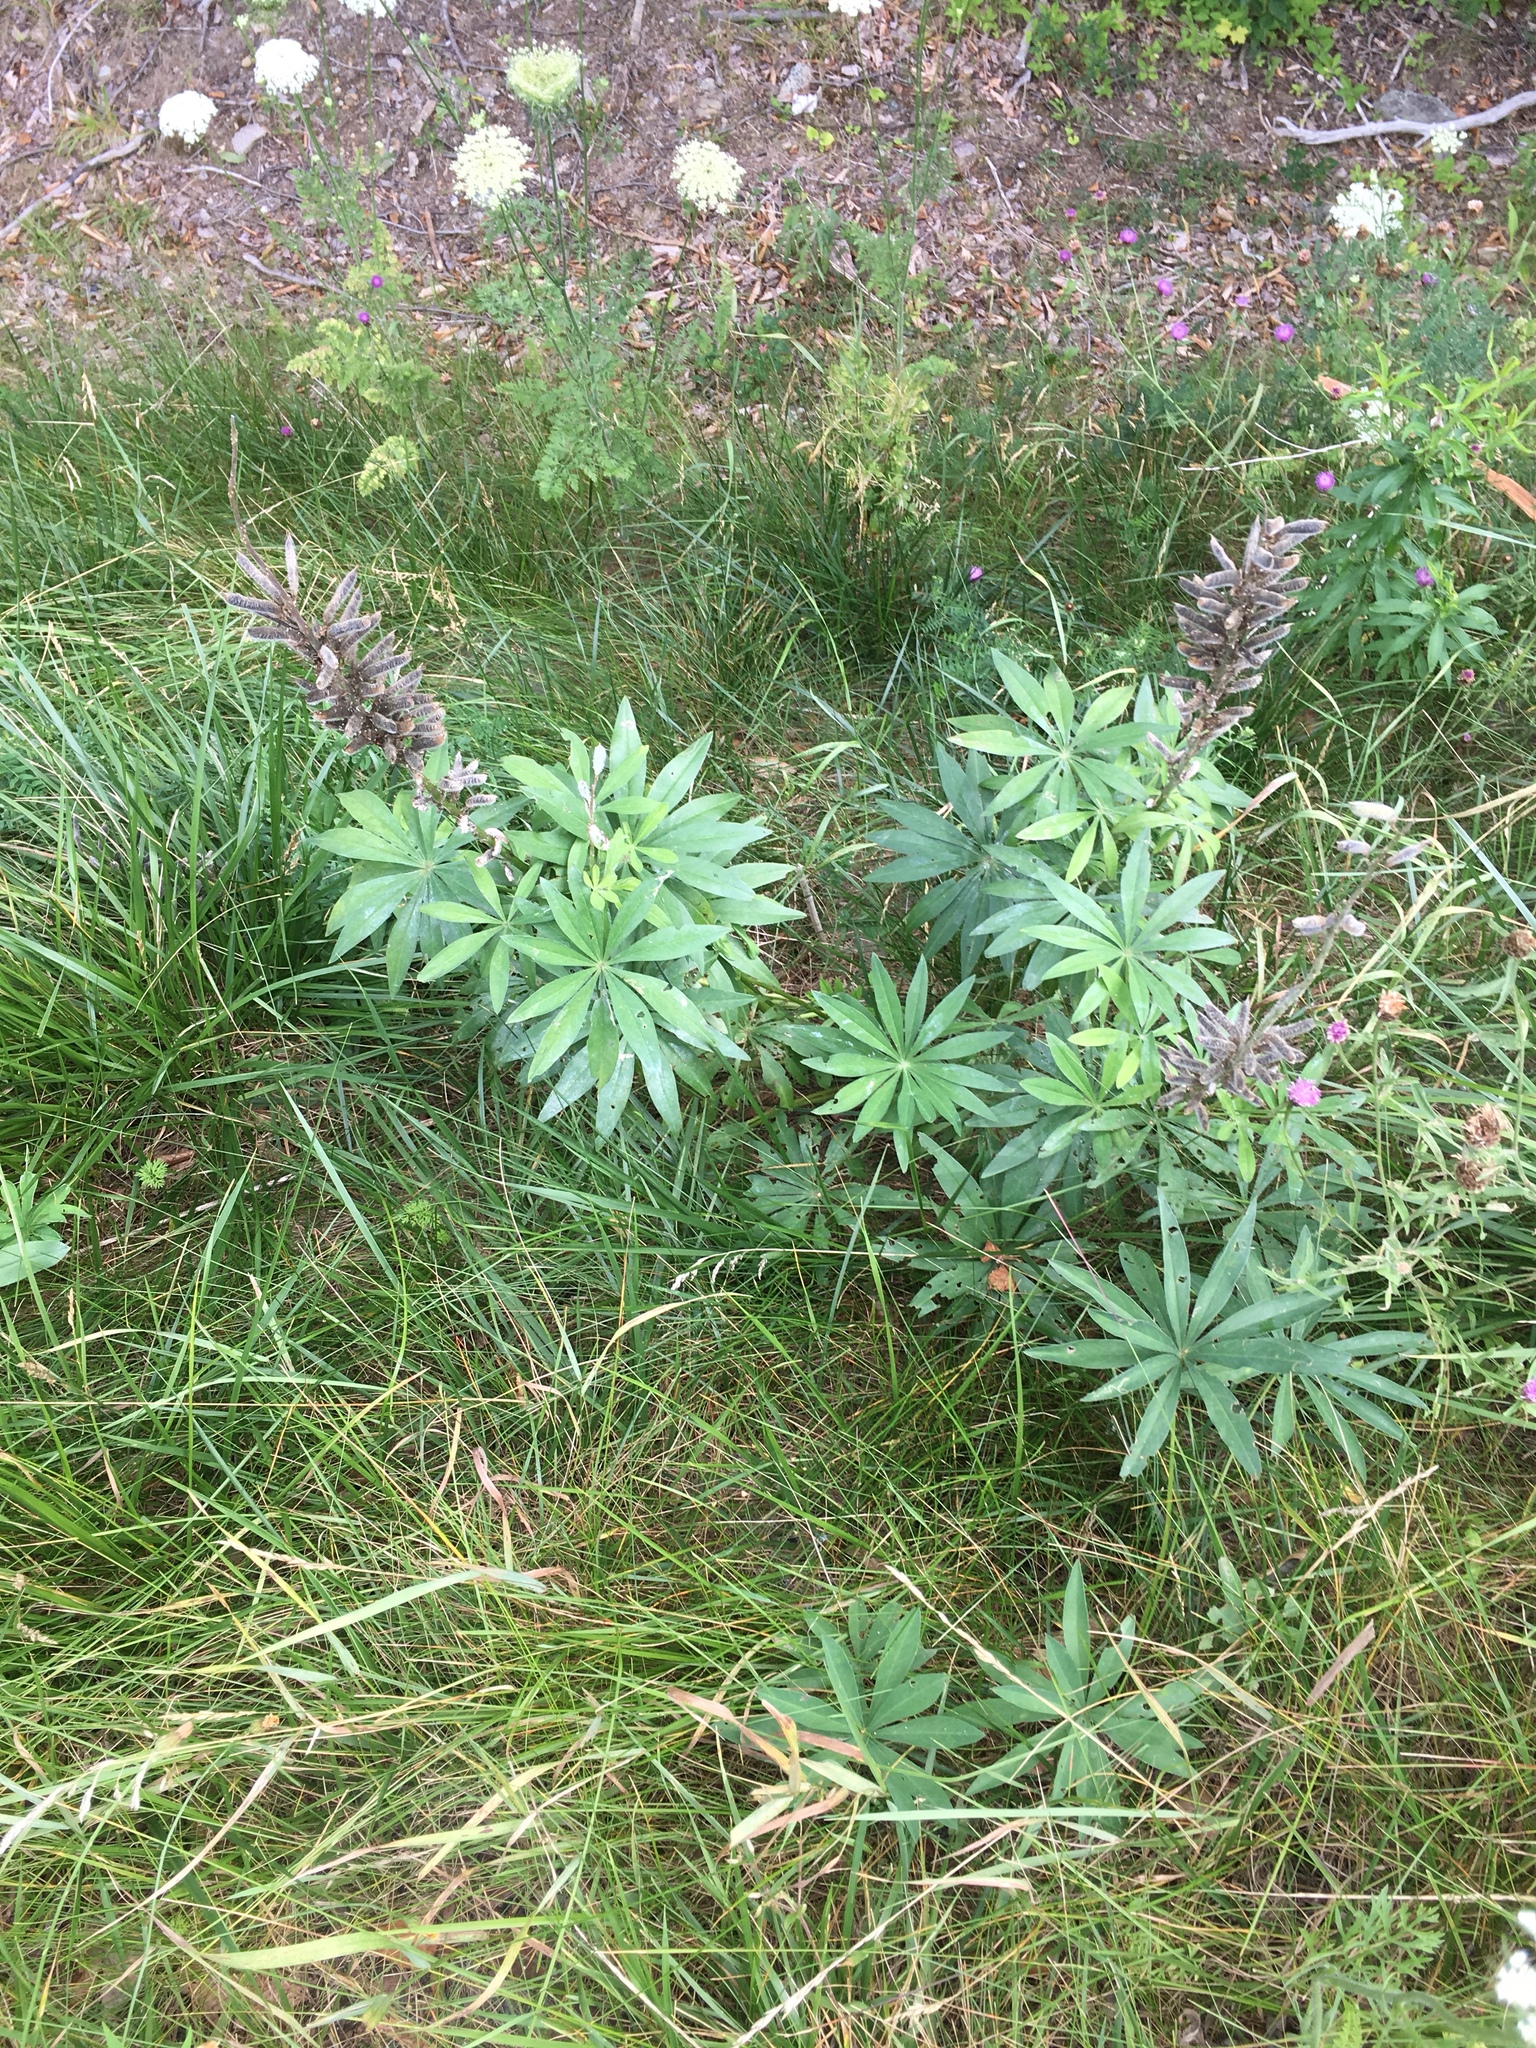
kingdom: Plantae
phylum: Tracheophyta
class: Magnoliopsida
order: Fabales
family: Fabaceae
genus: Lupinus
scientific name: Lupinus polyphyllus
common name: Garden lupin
